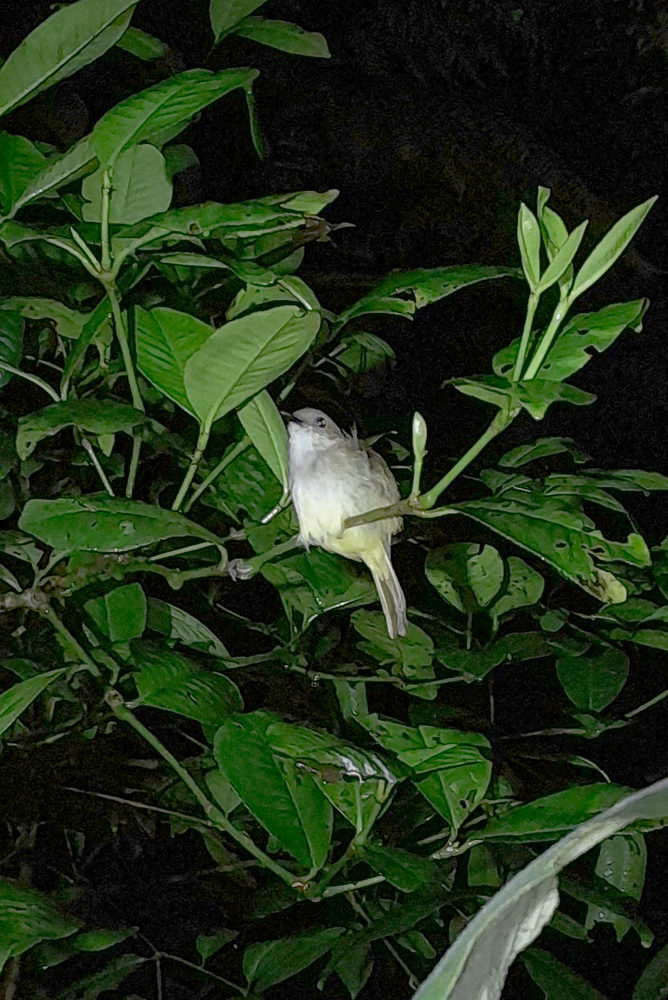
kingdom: Animalia
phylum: Chordata
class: Aves
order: Passeriformes
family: Pachycephalidae
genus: Pachycephala
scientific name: Pachycephala sulfuriventer
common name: Sulphur-vented whistler
